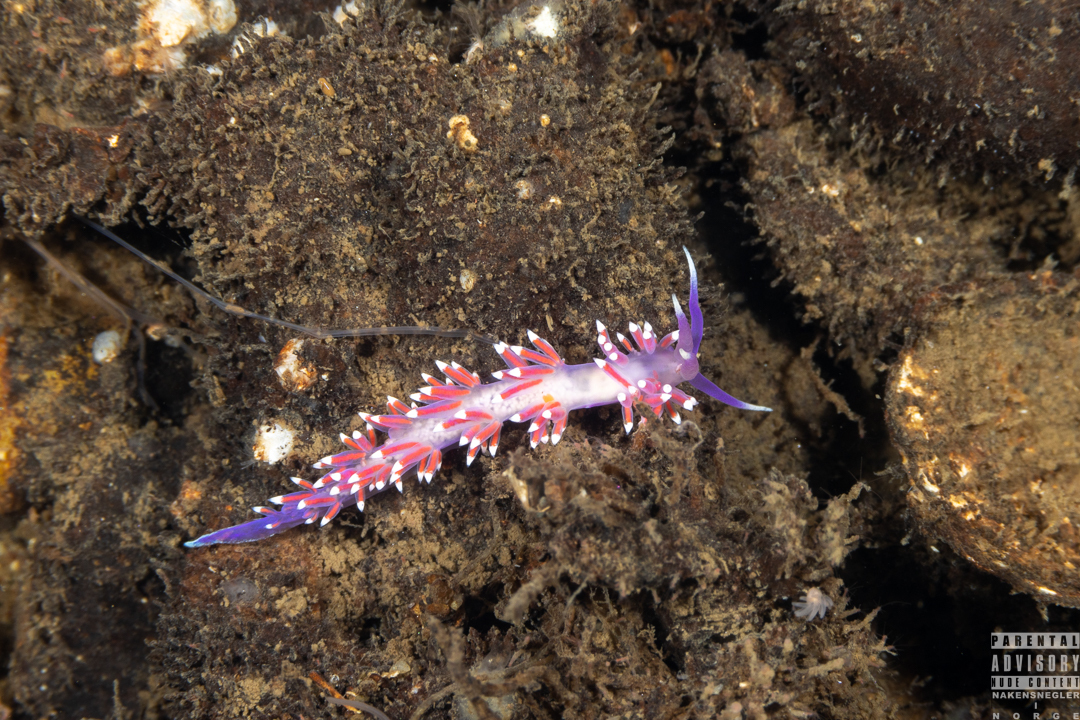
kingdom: Animalia
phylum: Mollusca
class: Gastropoda
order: Nudibranchia
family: Flabellinidae
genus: Edmundsella
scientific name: Edmundsella pedata
